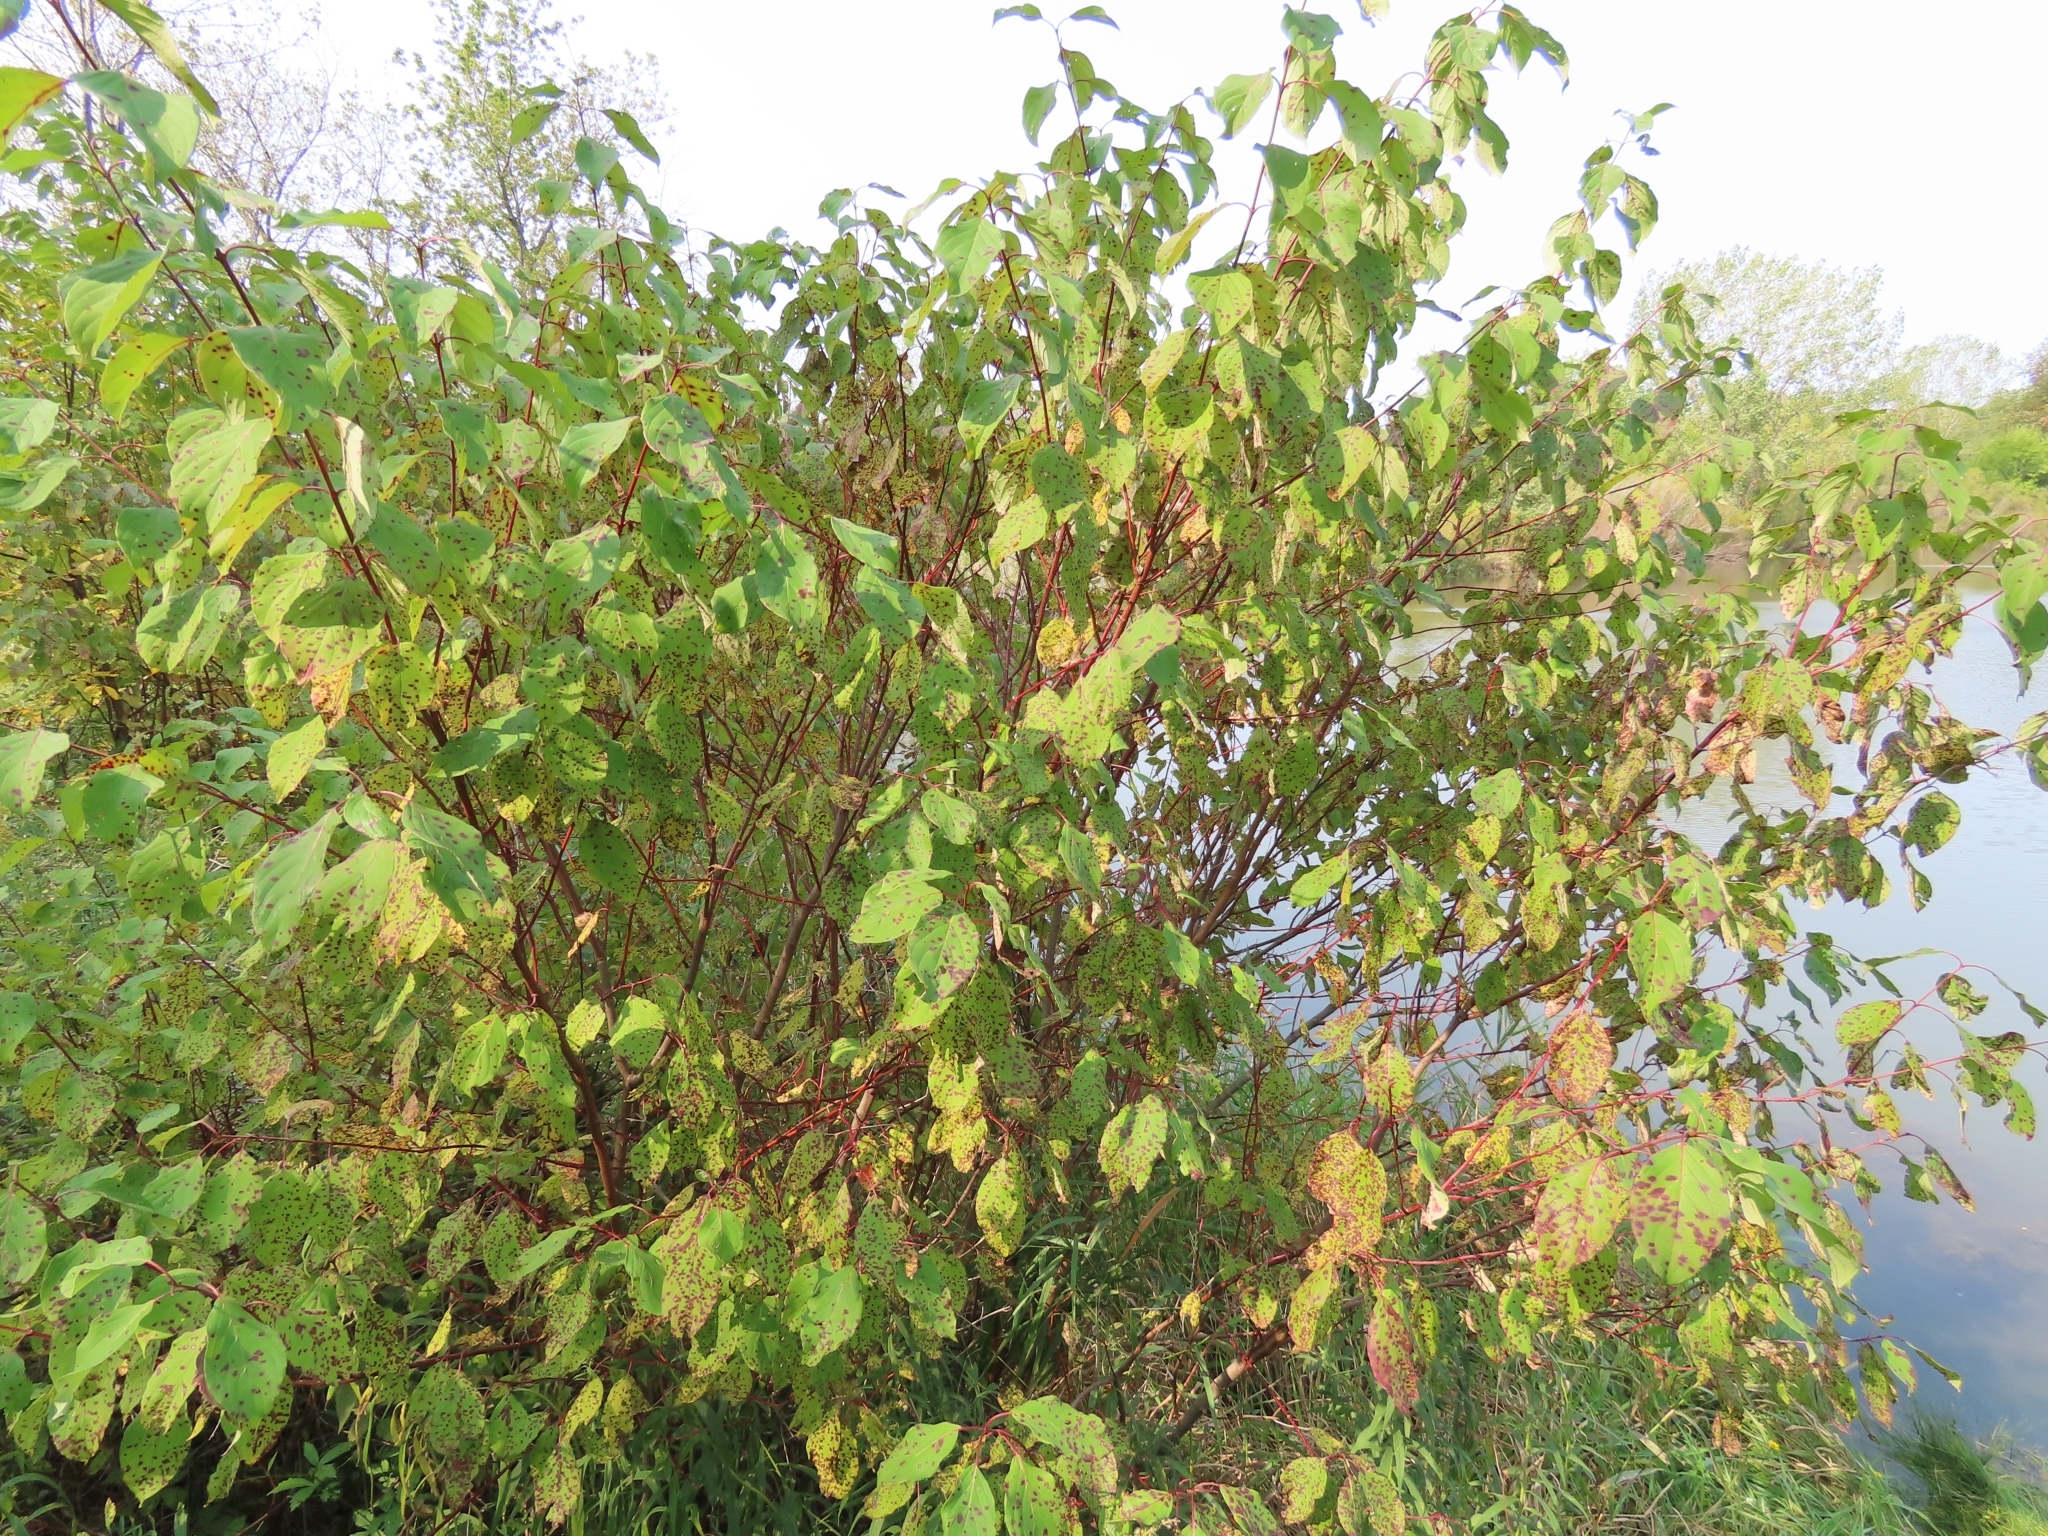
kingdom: Plantae
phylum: Tracheophyta
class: Magnoliopsida
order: Cornales
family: Cornaceae
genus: Cornus
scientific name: Cornus sericea
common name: Red-osier dogwood
